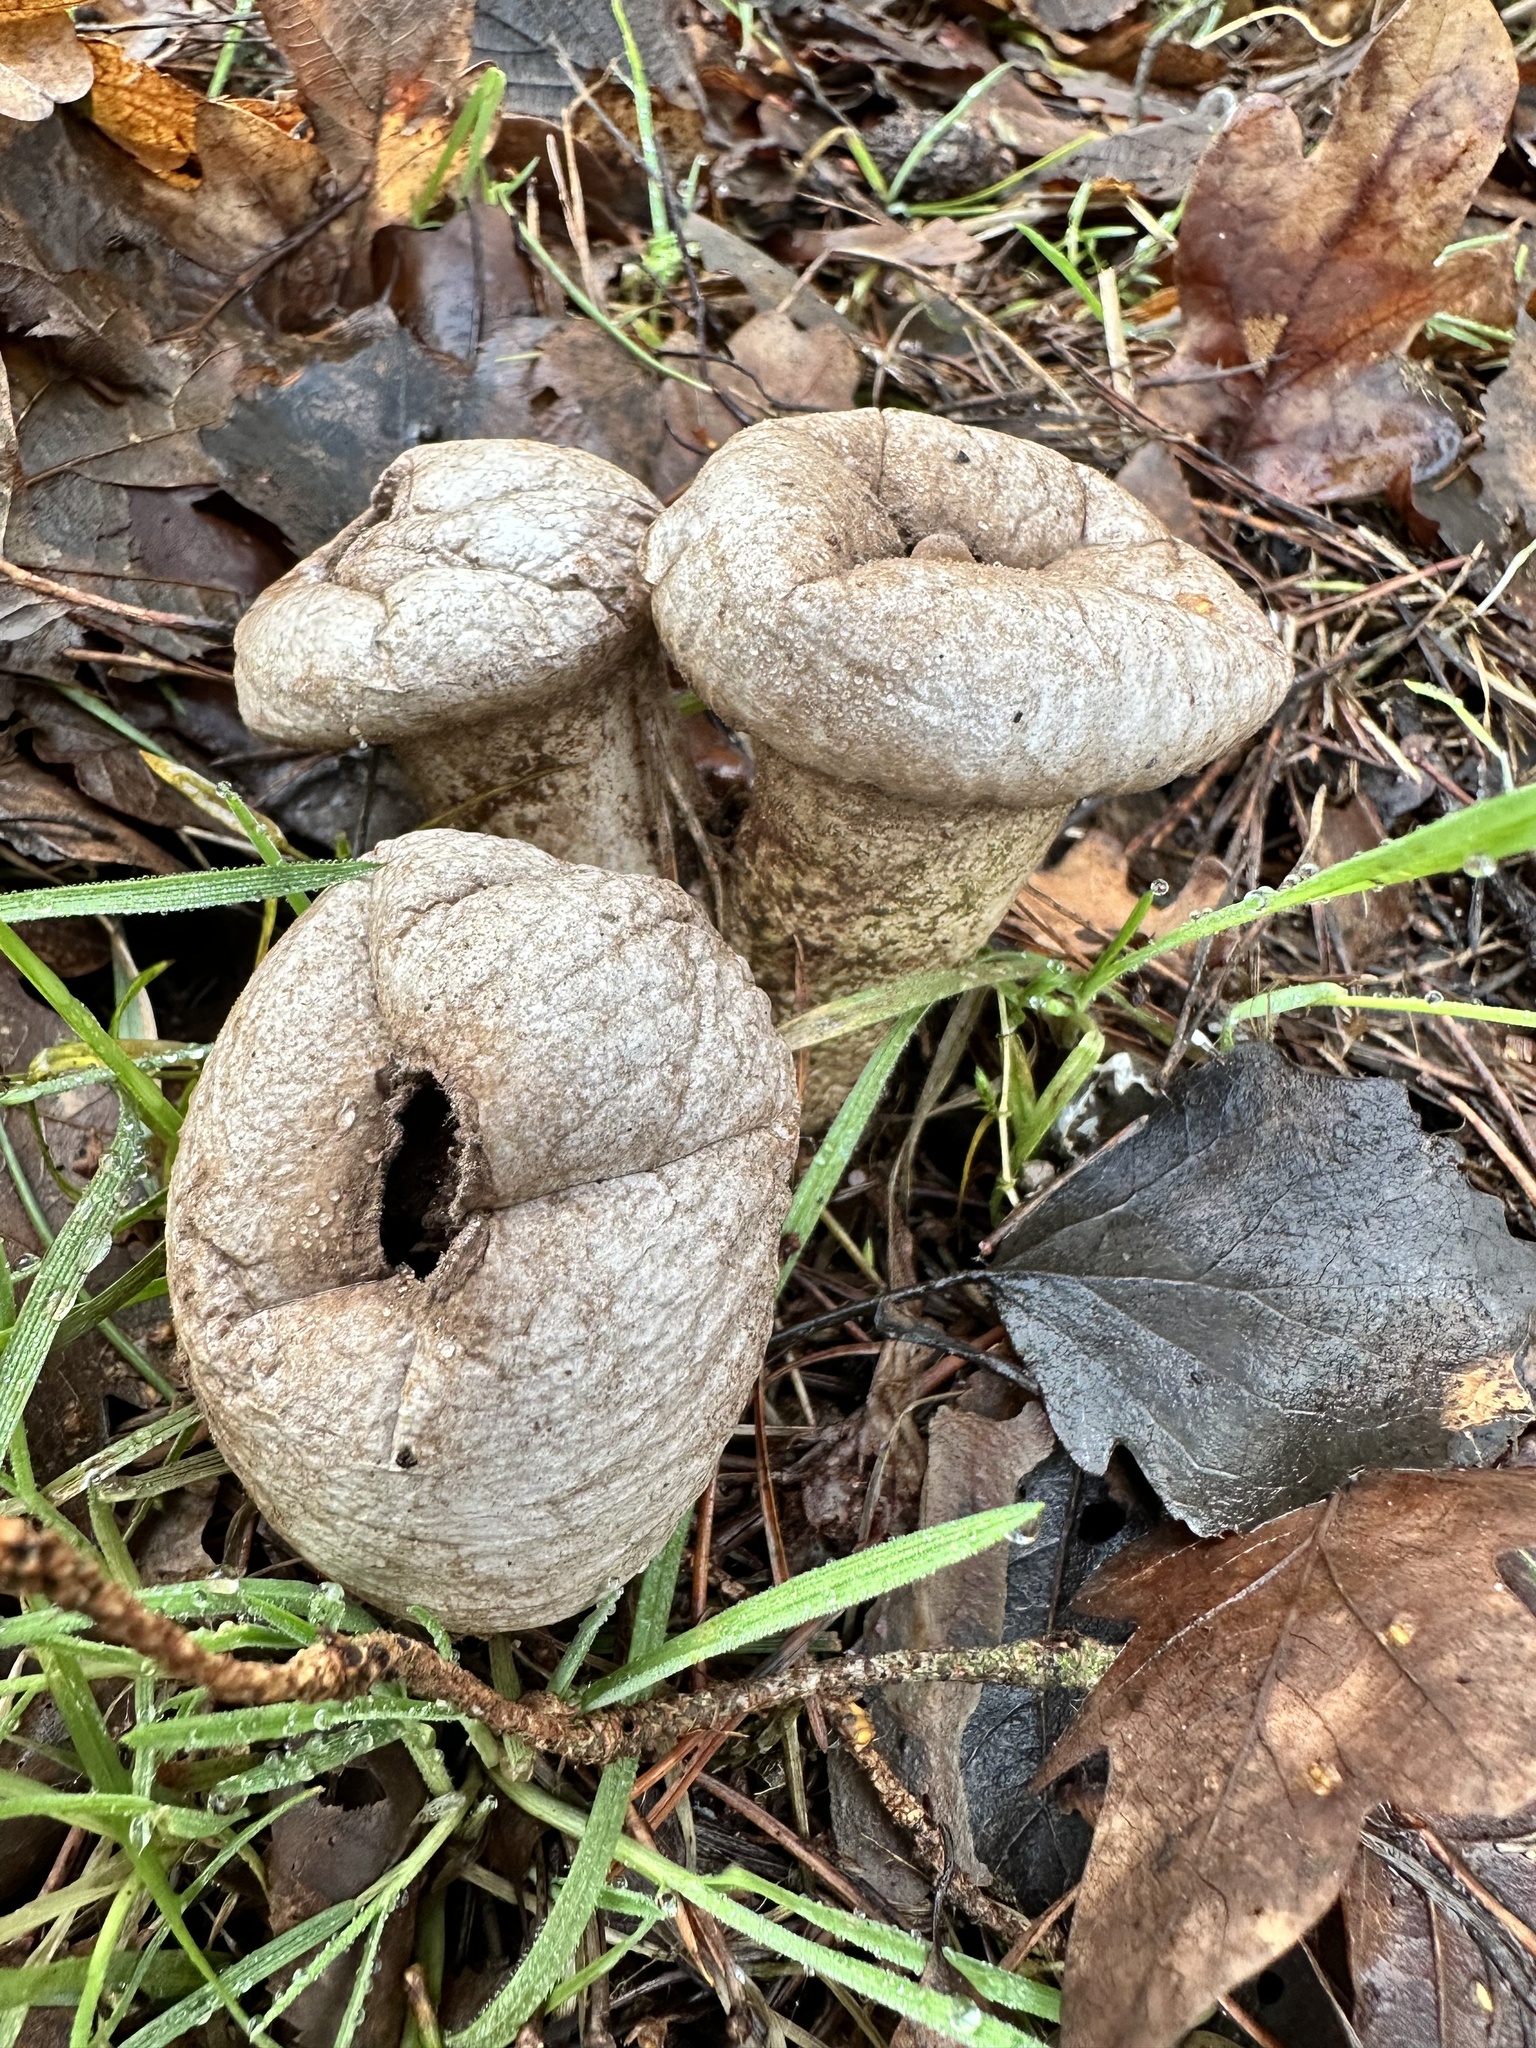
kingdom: Fungi
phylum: Basidiomycota
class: Agaricomycetes
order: Agaricales
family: Lycoperdaceae
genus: Lycoperdon
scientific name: Lycoperdon perlatum
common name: Common puffball
